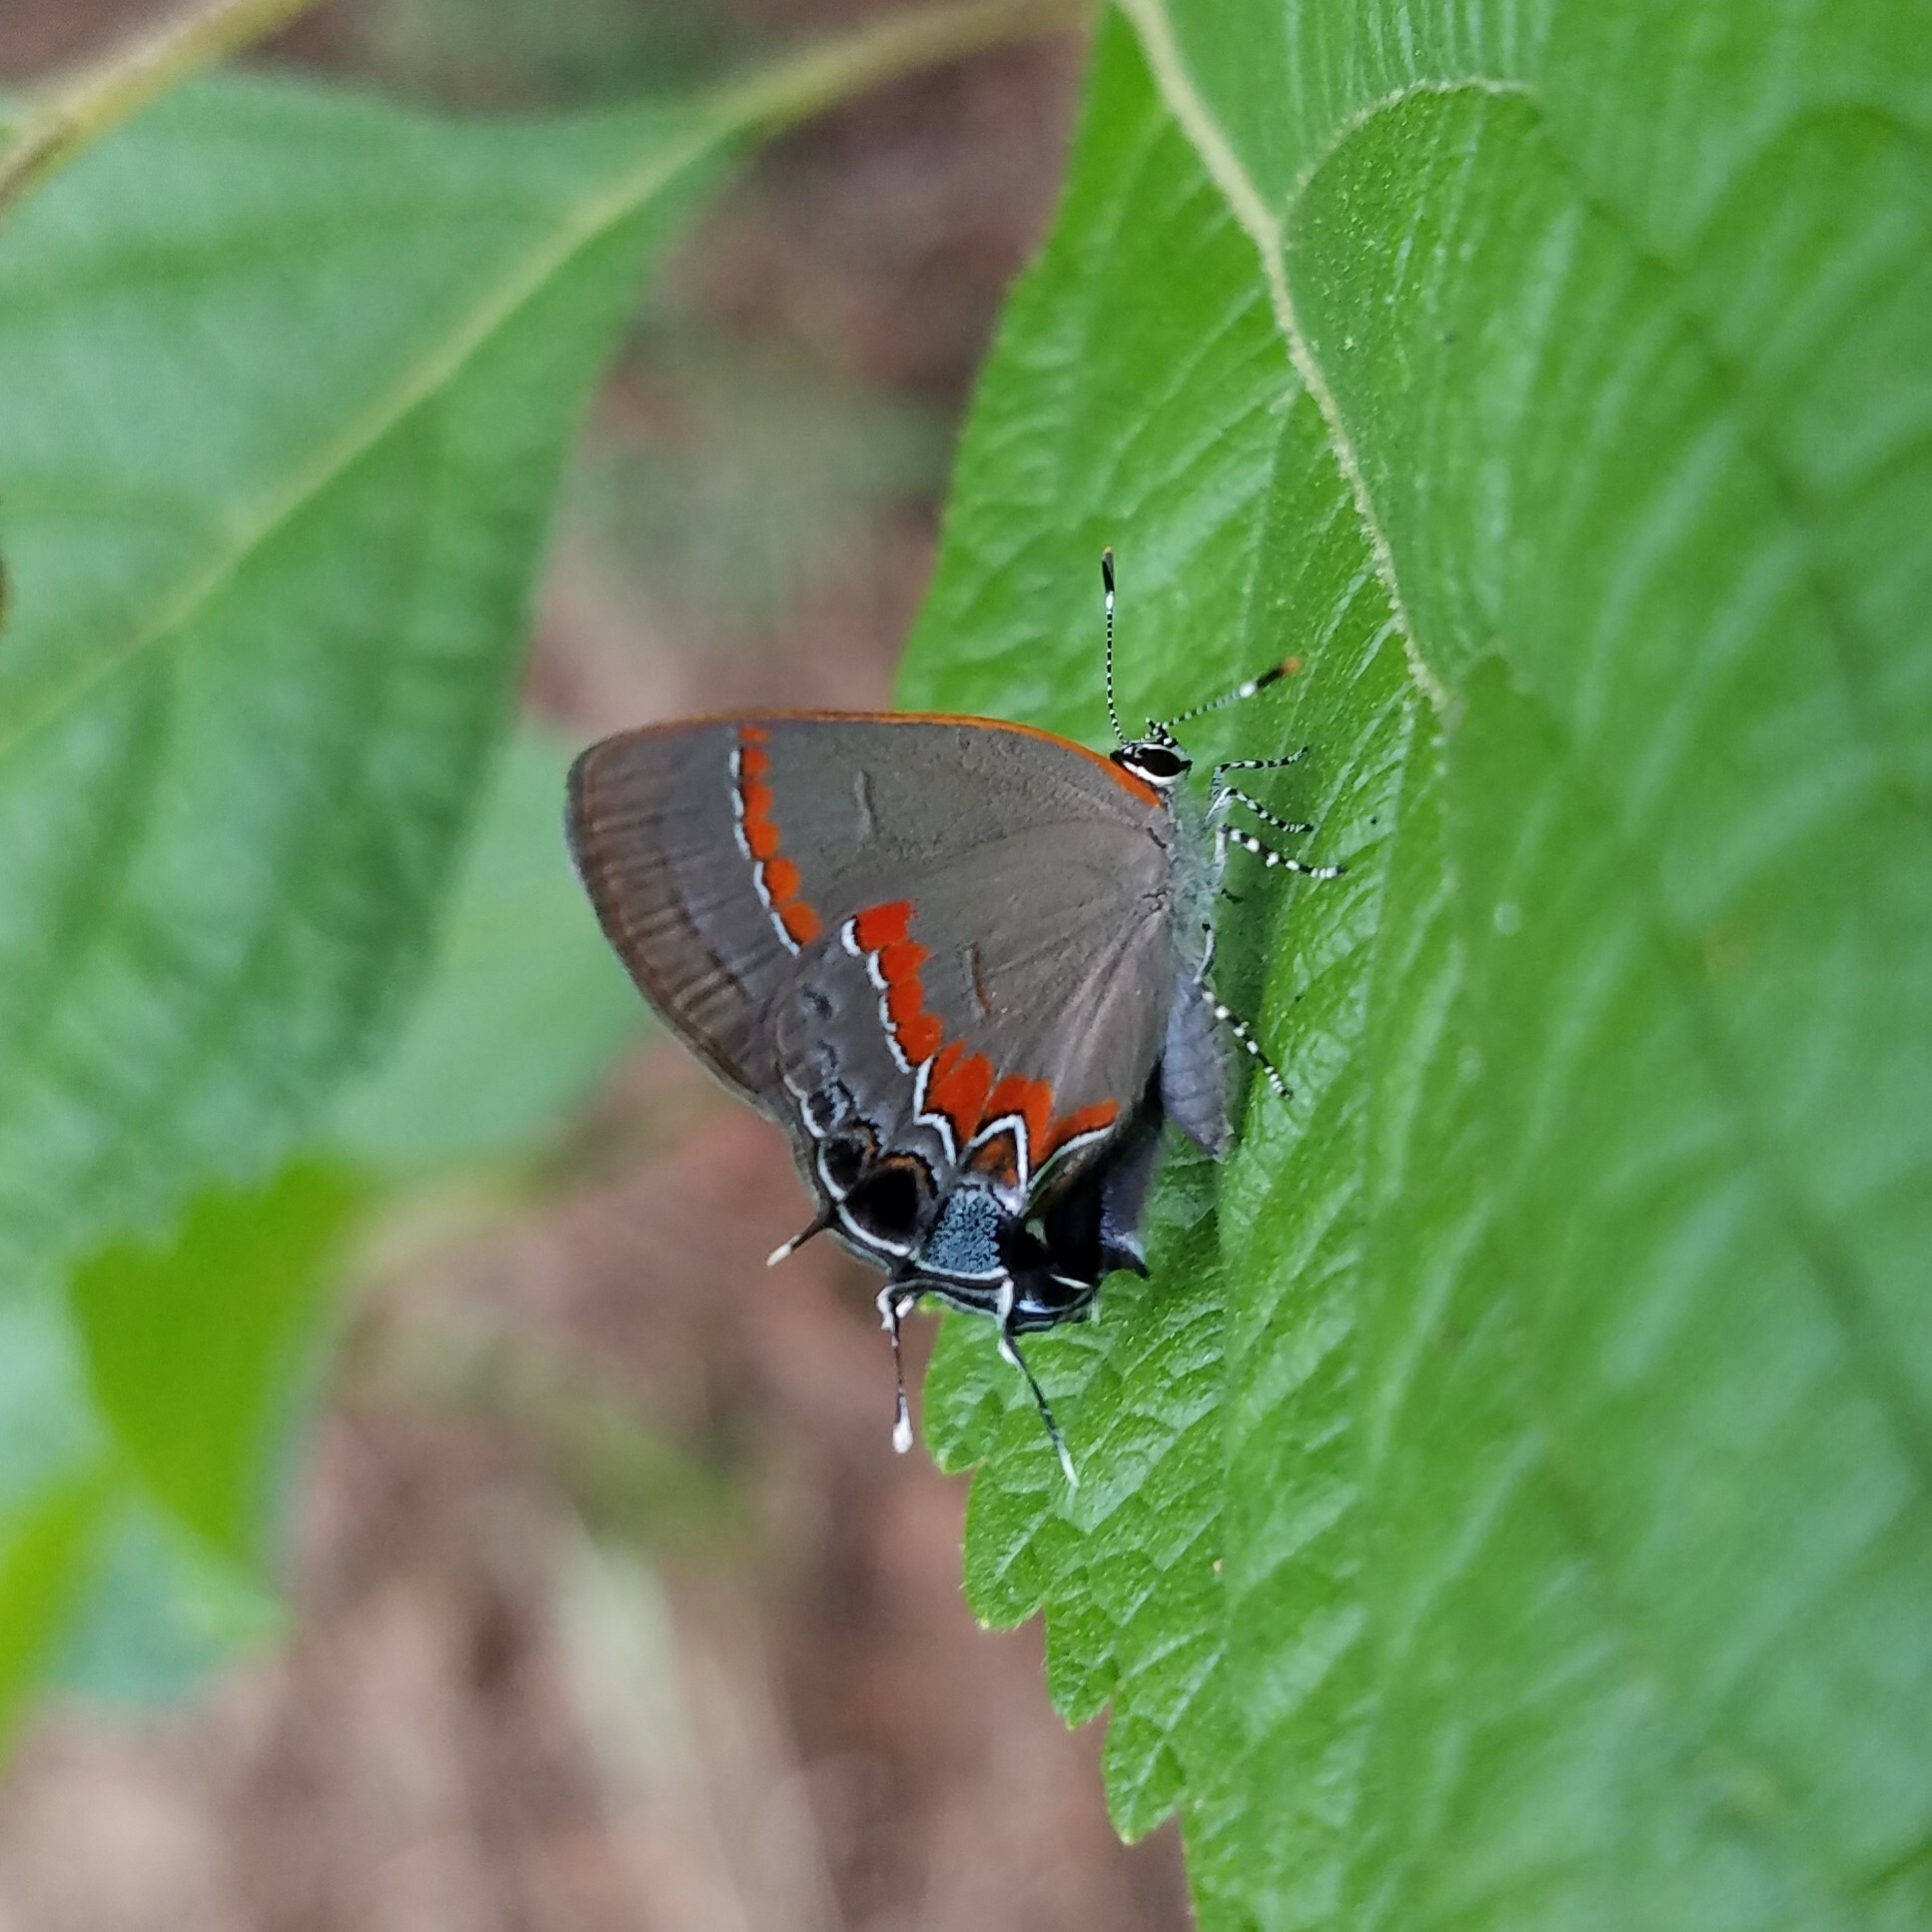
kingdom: Animalia
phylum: Arthropoda
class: Insecta
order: Lepidoptera
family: Lycaenidae
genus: Calycopis
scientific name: Calycopis cecrops
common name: Red-banded hairstreak
